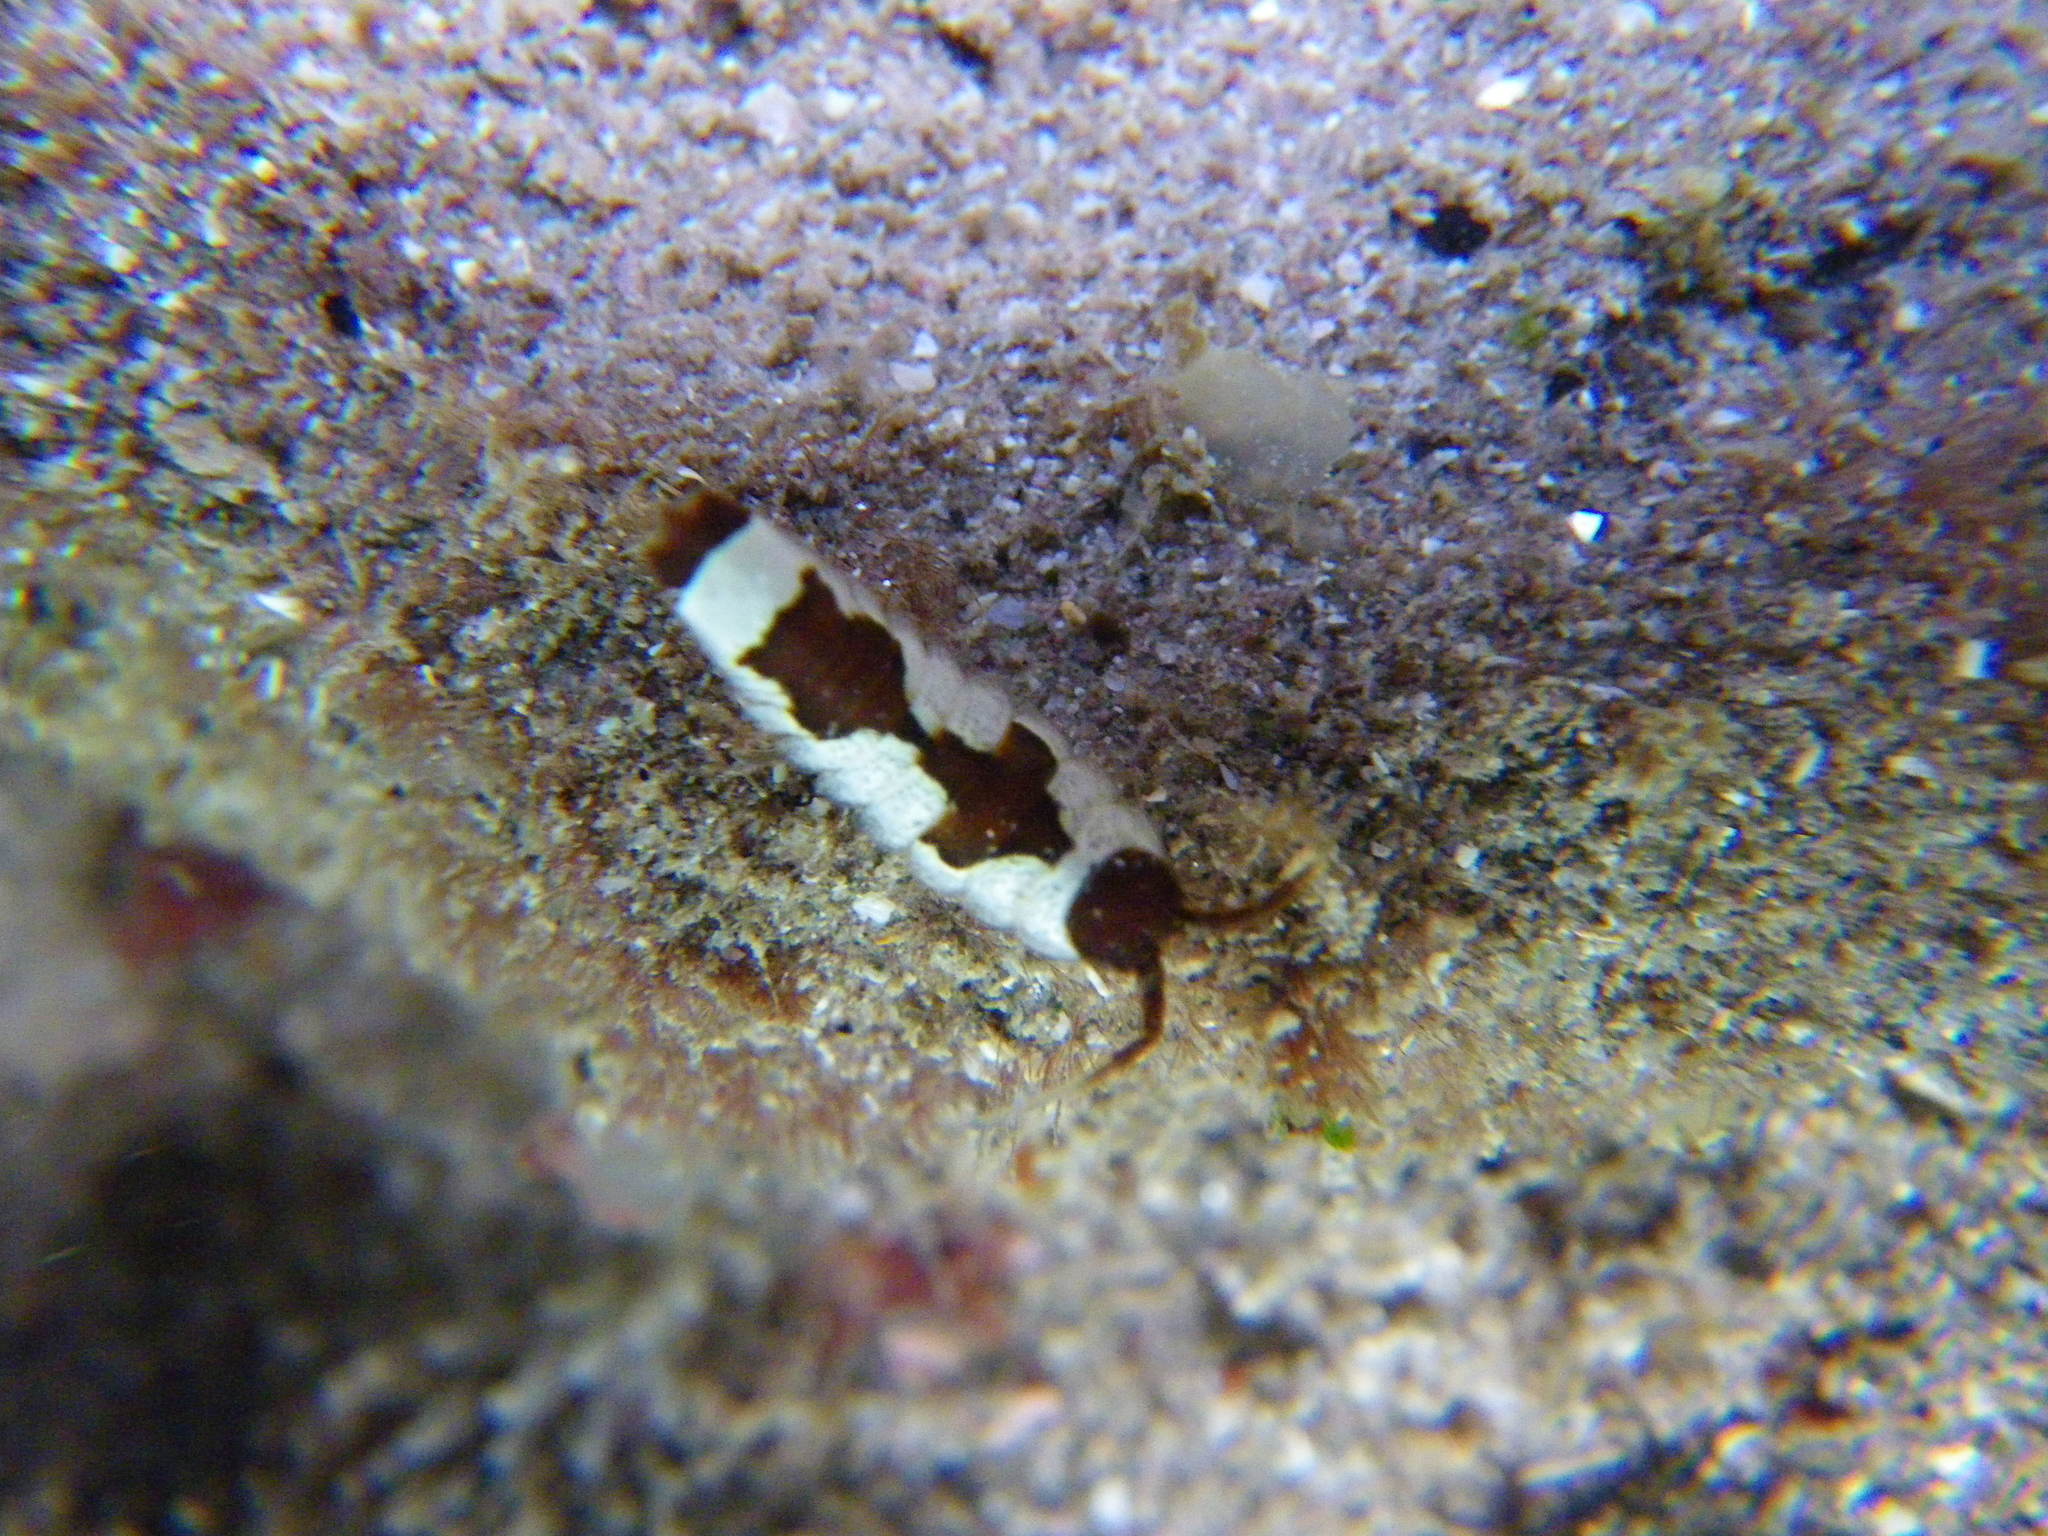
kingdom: Animalia
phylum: Arthropoda
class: Malacostraca
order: Isopoda
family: Idoteidae
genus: Idotea
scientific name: Idotea balthica
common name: Baltic isopod
